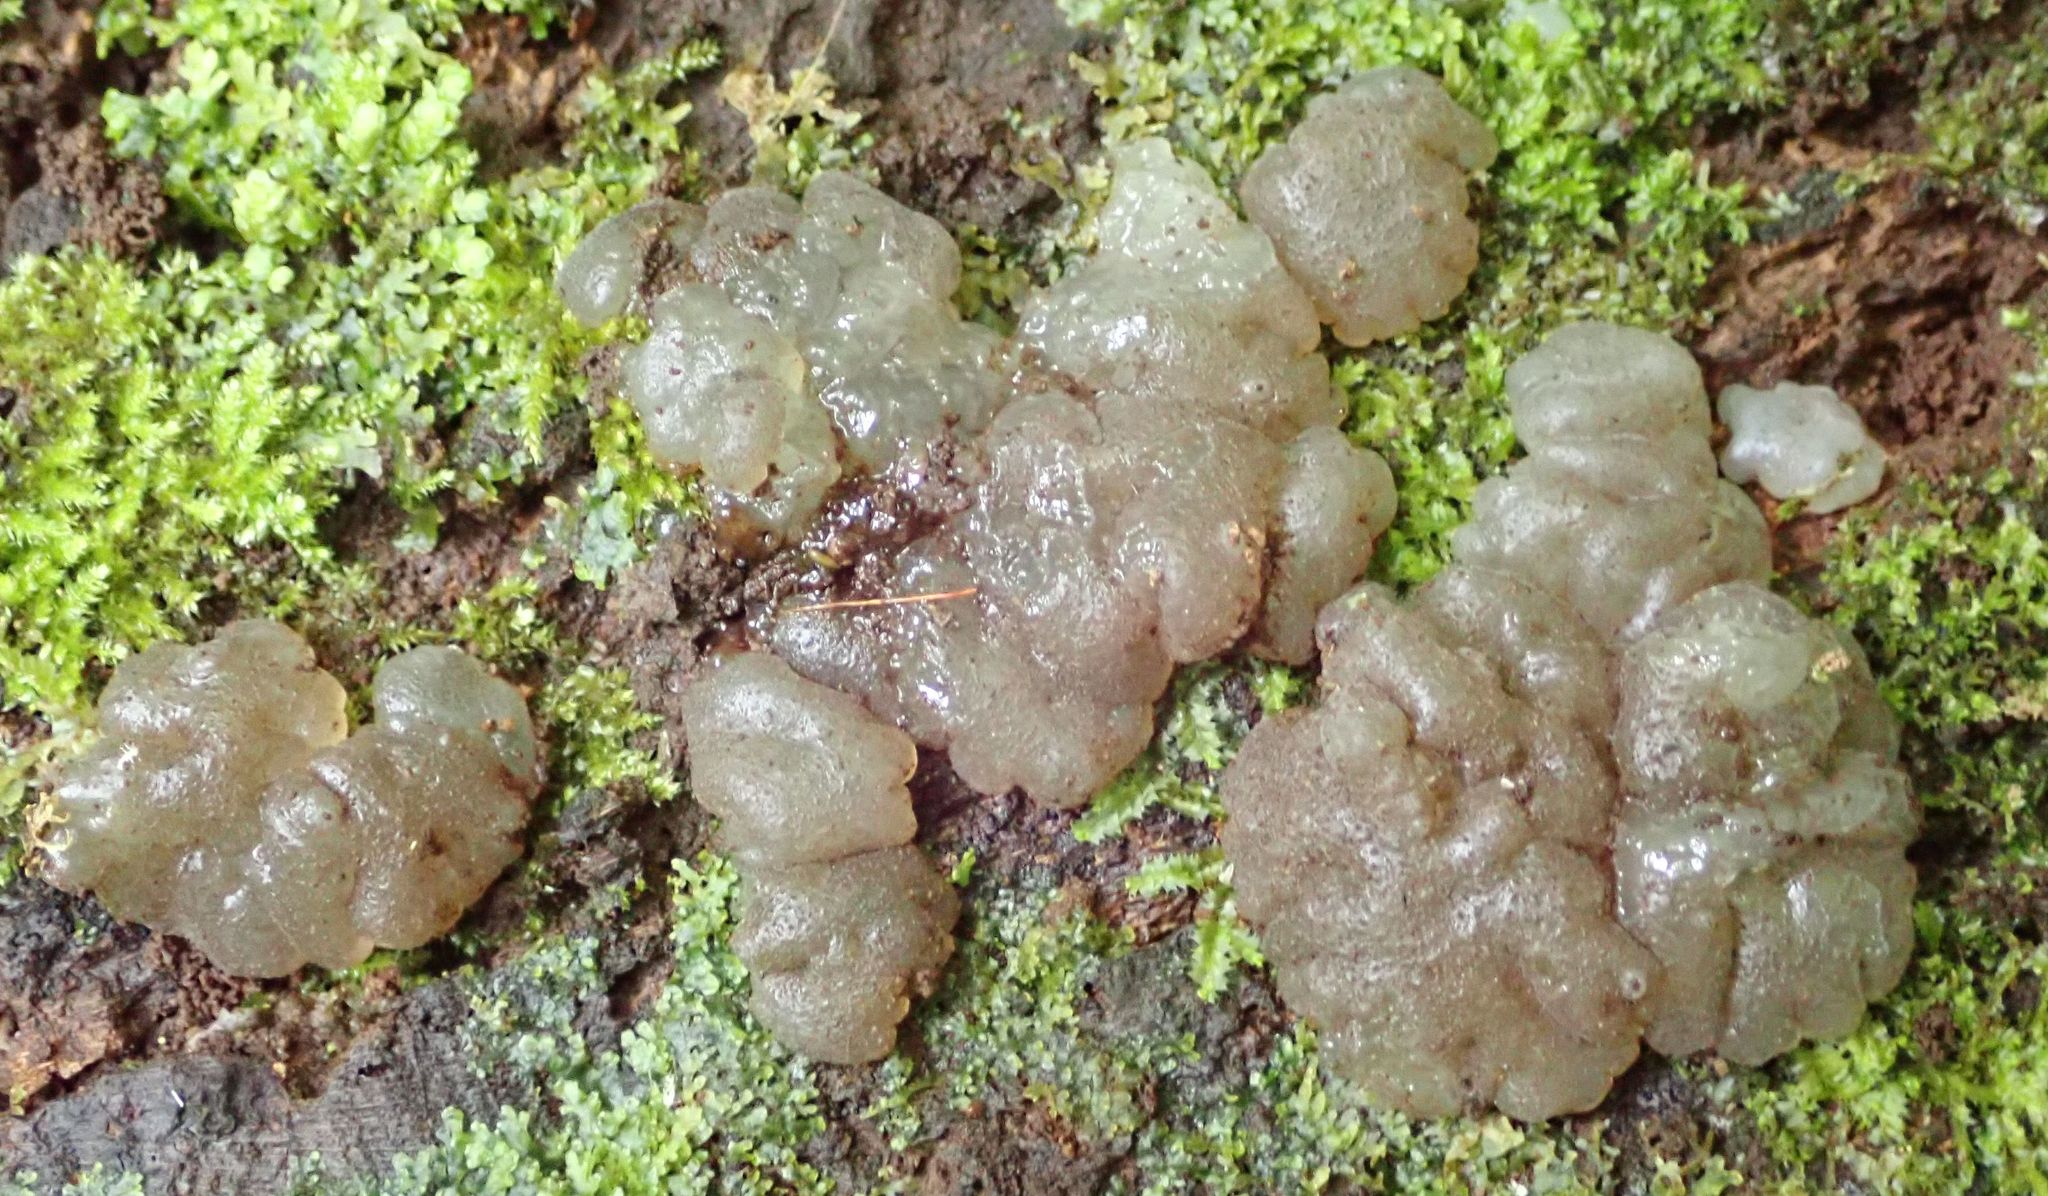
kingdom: Fungi
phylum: Basidiomycota
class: Agaricomycetes
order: Auriculariales
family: Auriculariaceae
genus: Tremellochaete
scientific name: Tremellochaete
